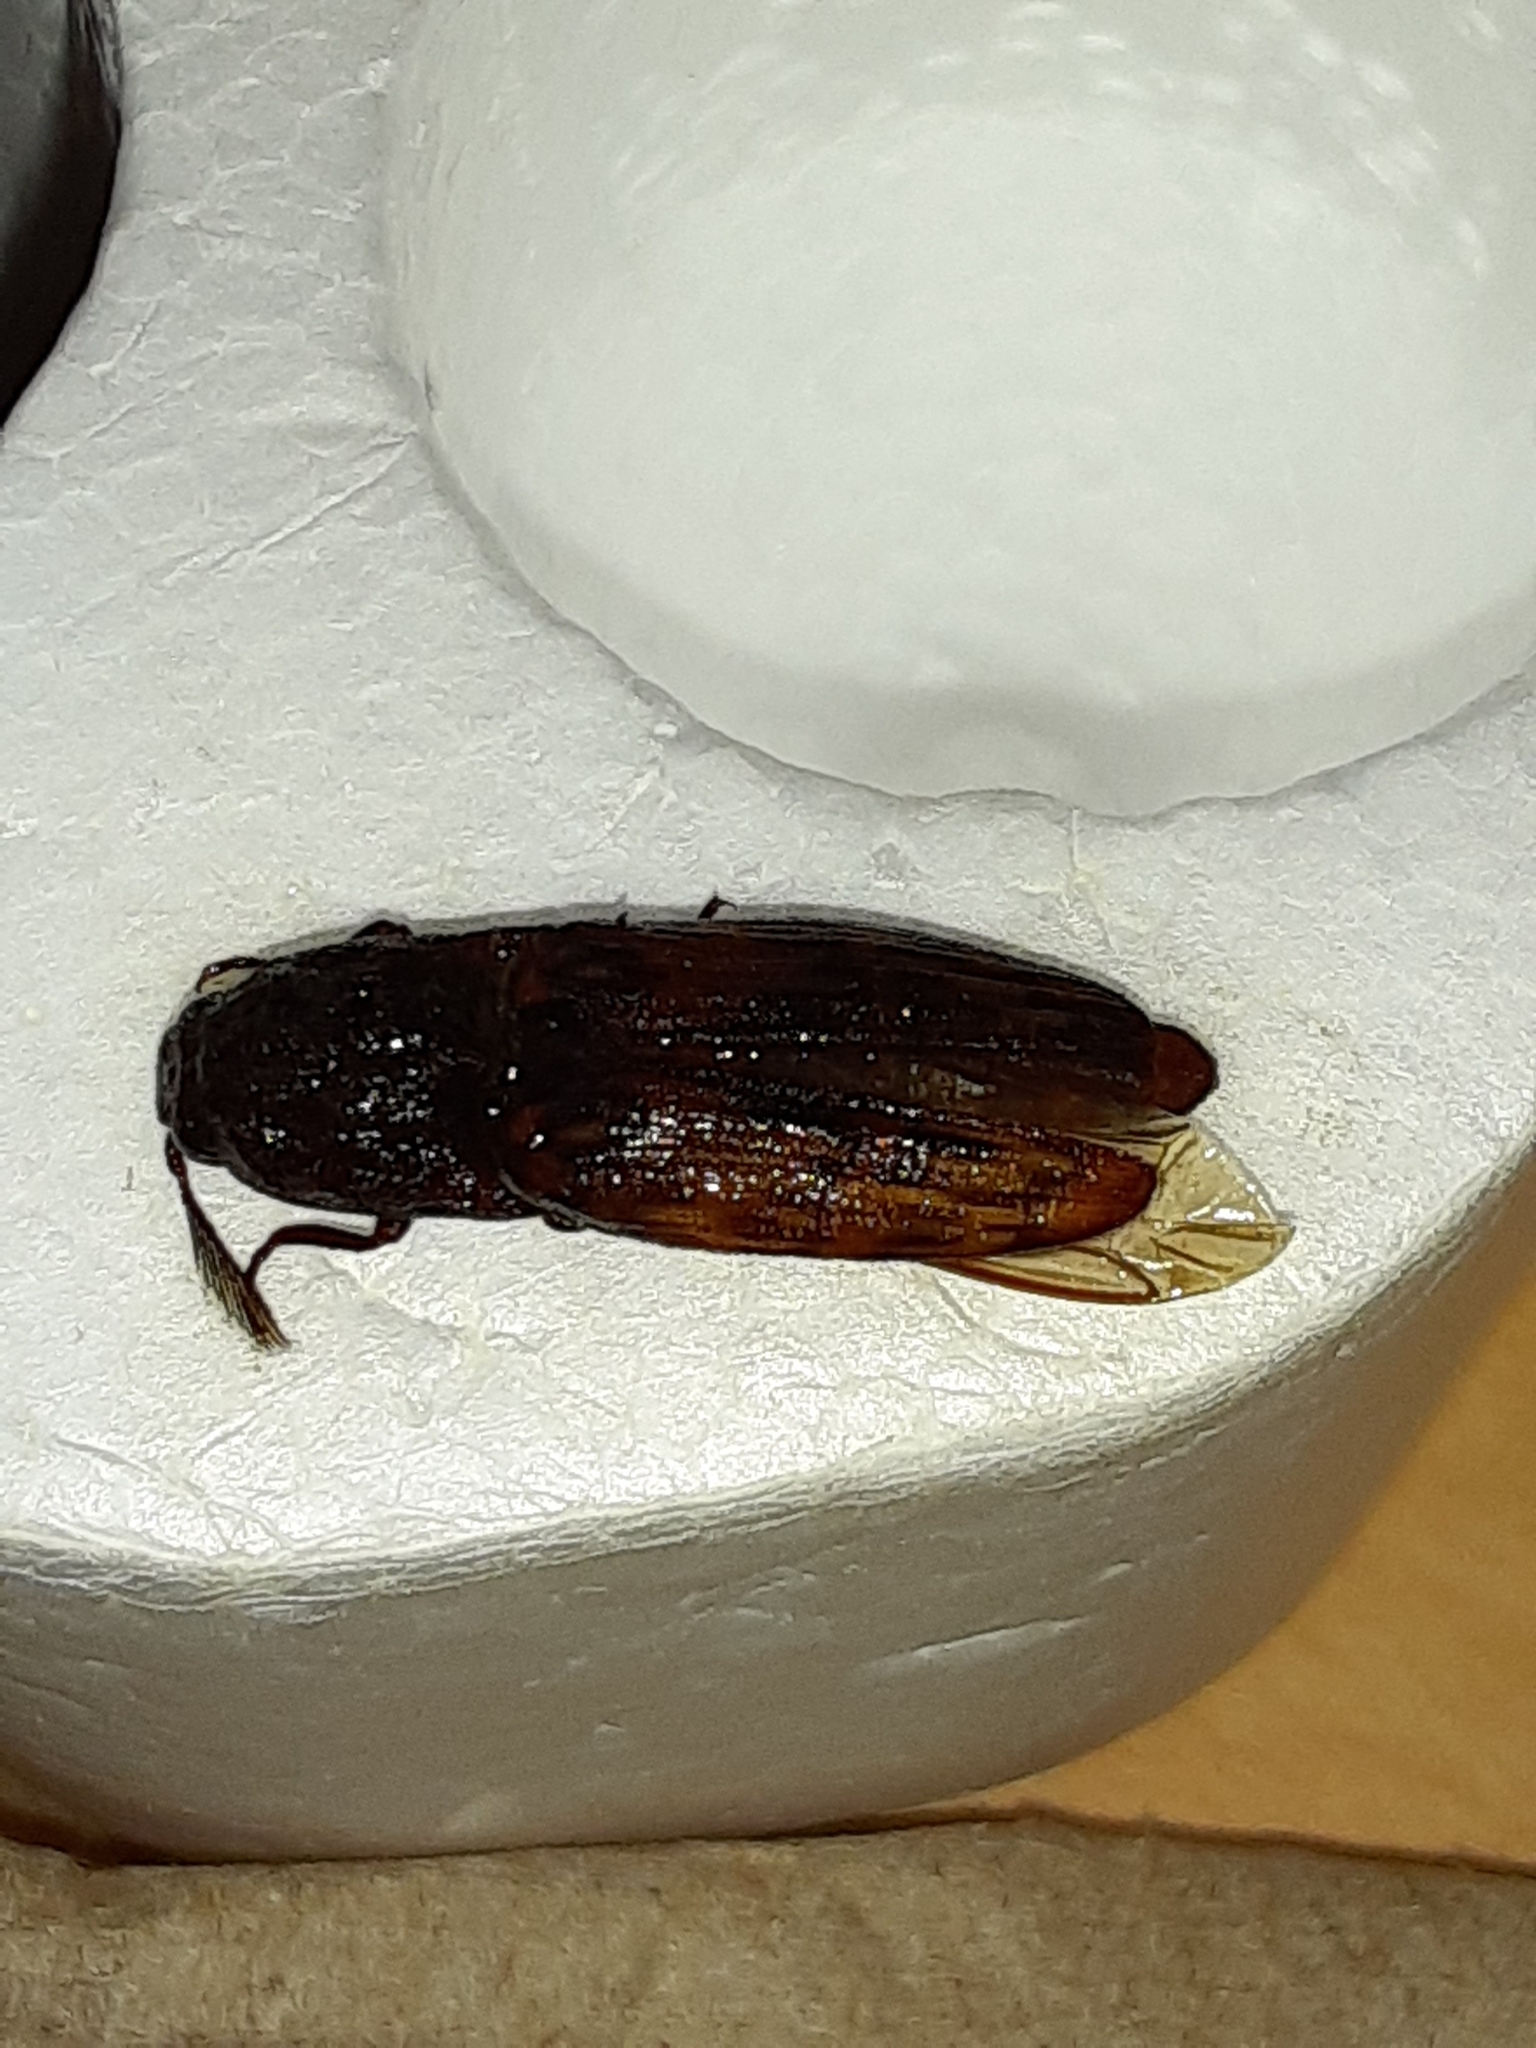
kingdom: Animalia
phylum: Arthropoda
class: Insecta
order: Coleoptera
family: Elateridae
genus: Pherhimius
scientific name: Pherhimius fascicularis
